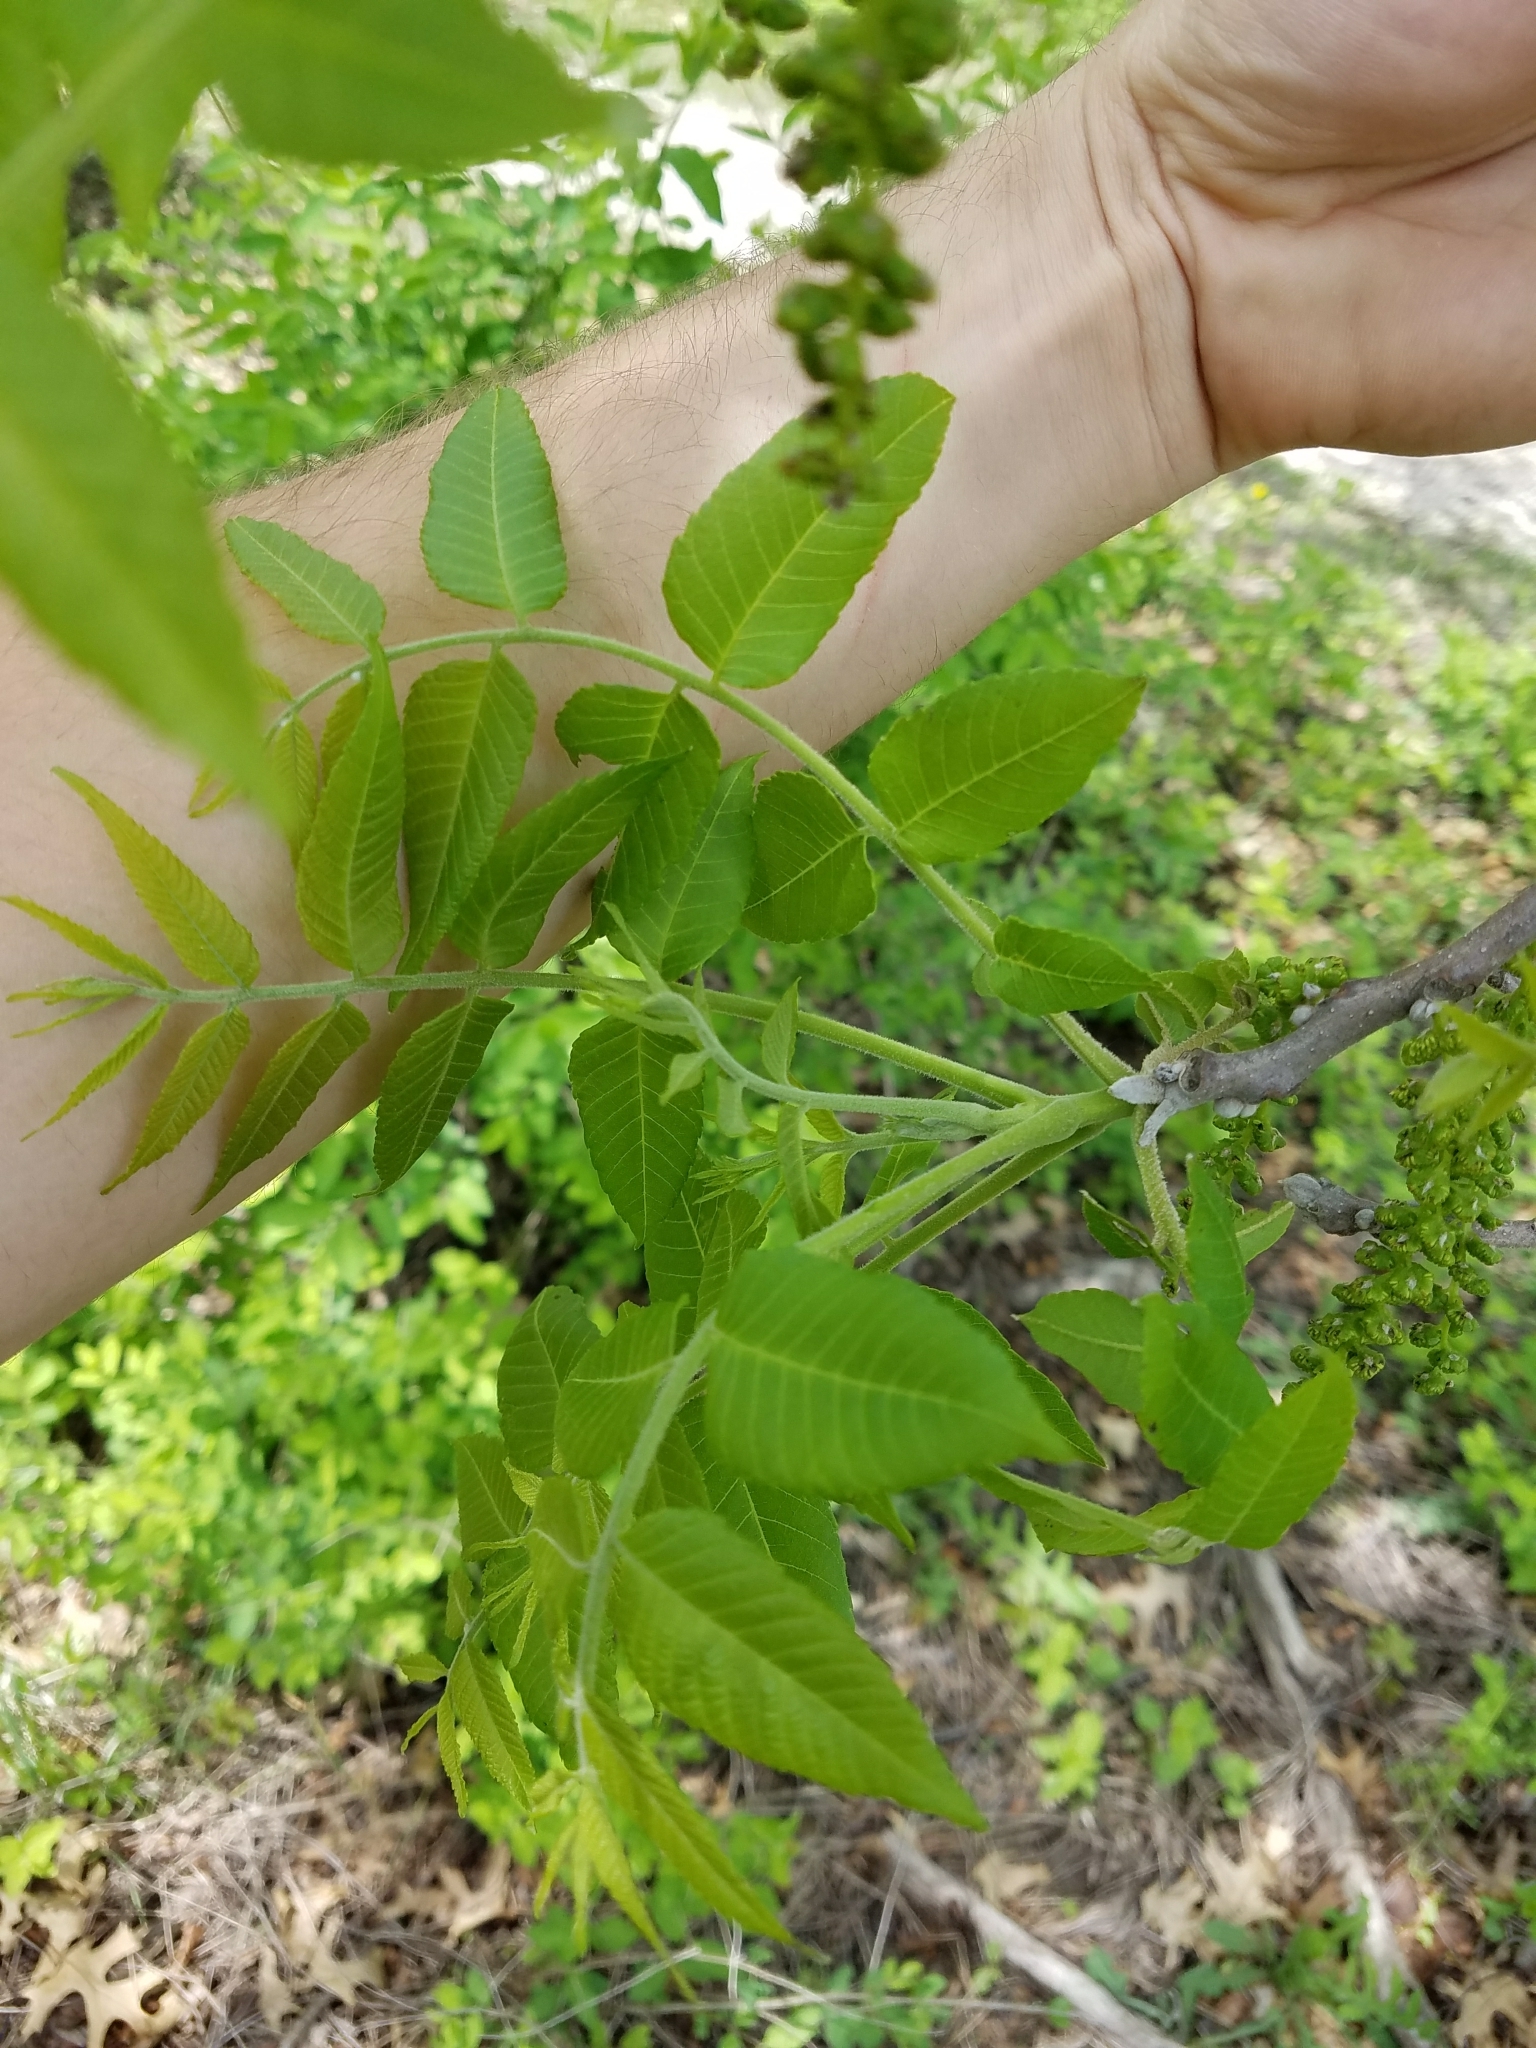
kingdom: Plantae
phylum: Tracheophyta
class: Magnoliopsida
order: Fagales
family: Juglandaceae
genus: Juglans
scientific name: Juglans nigra
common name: Black walnut
